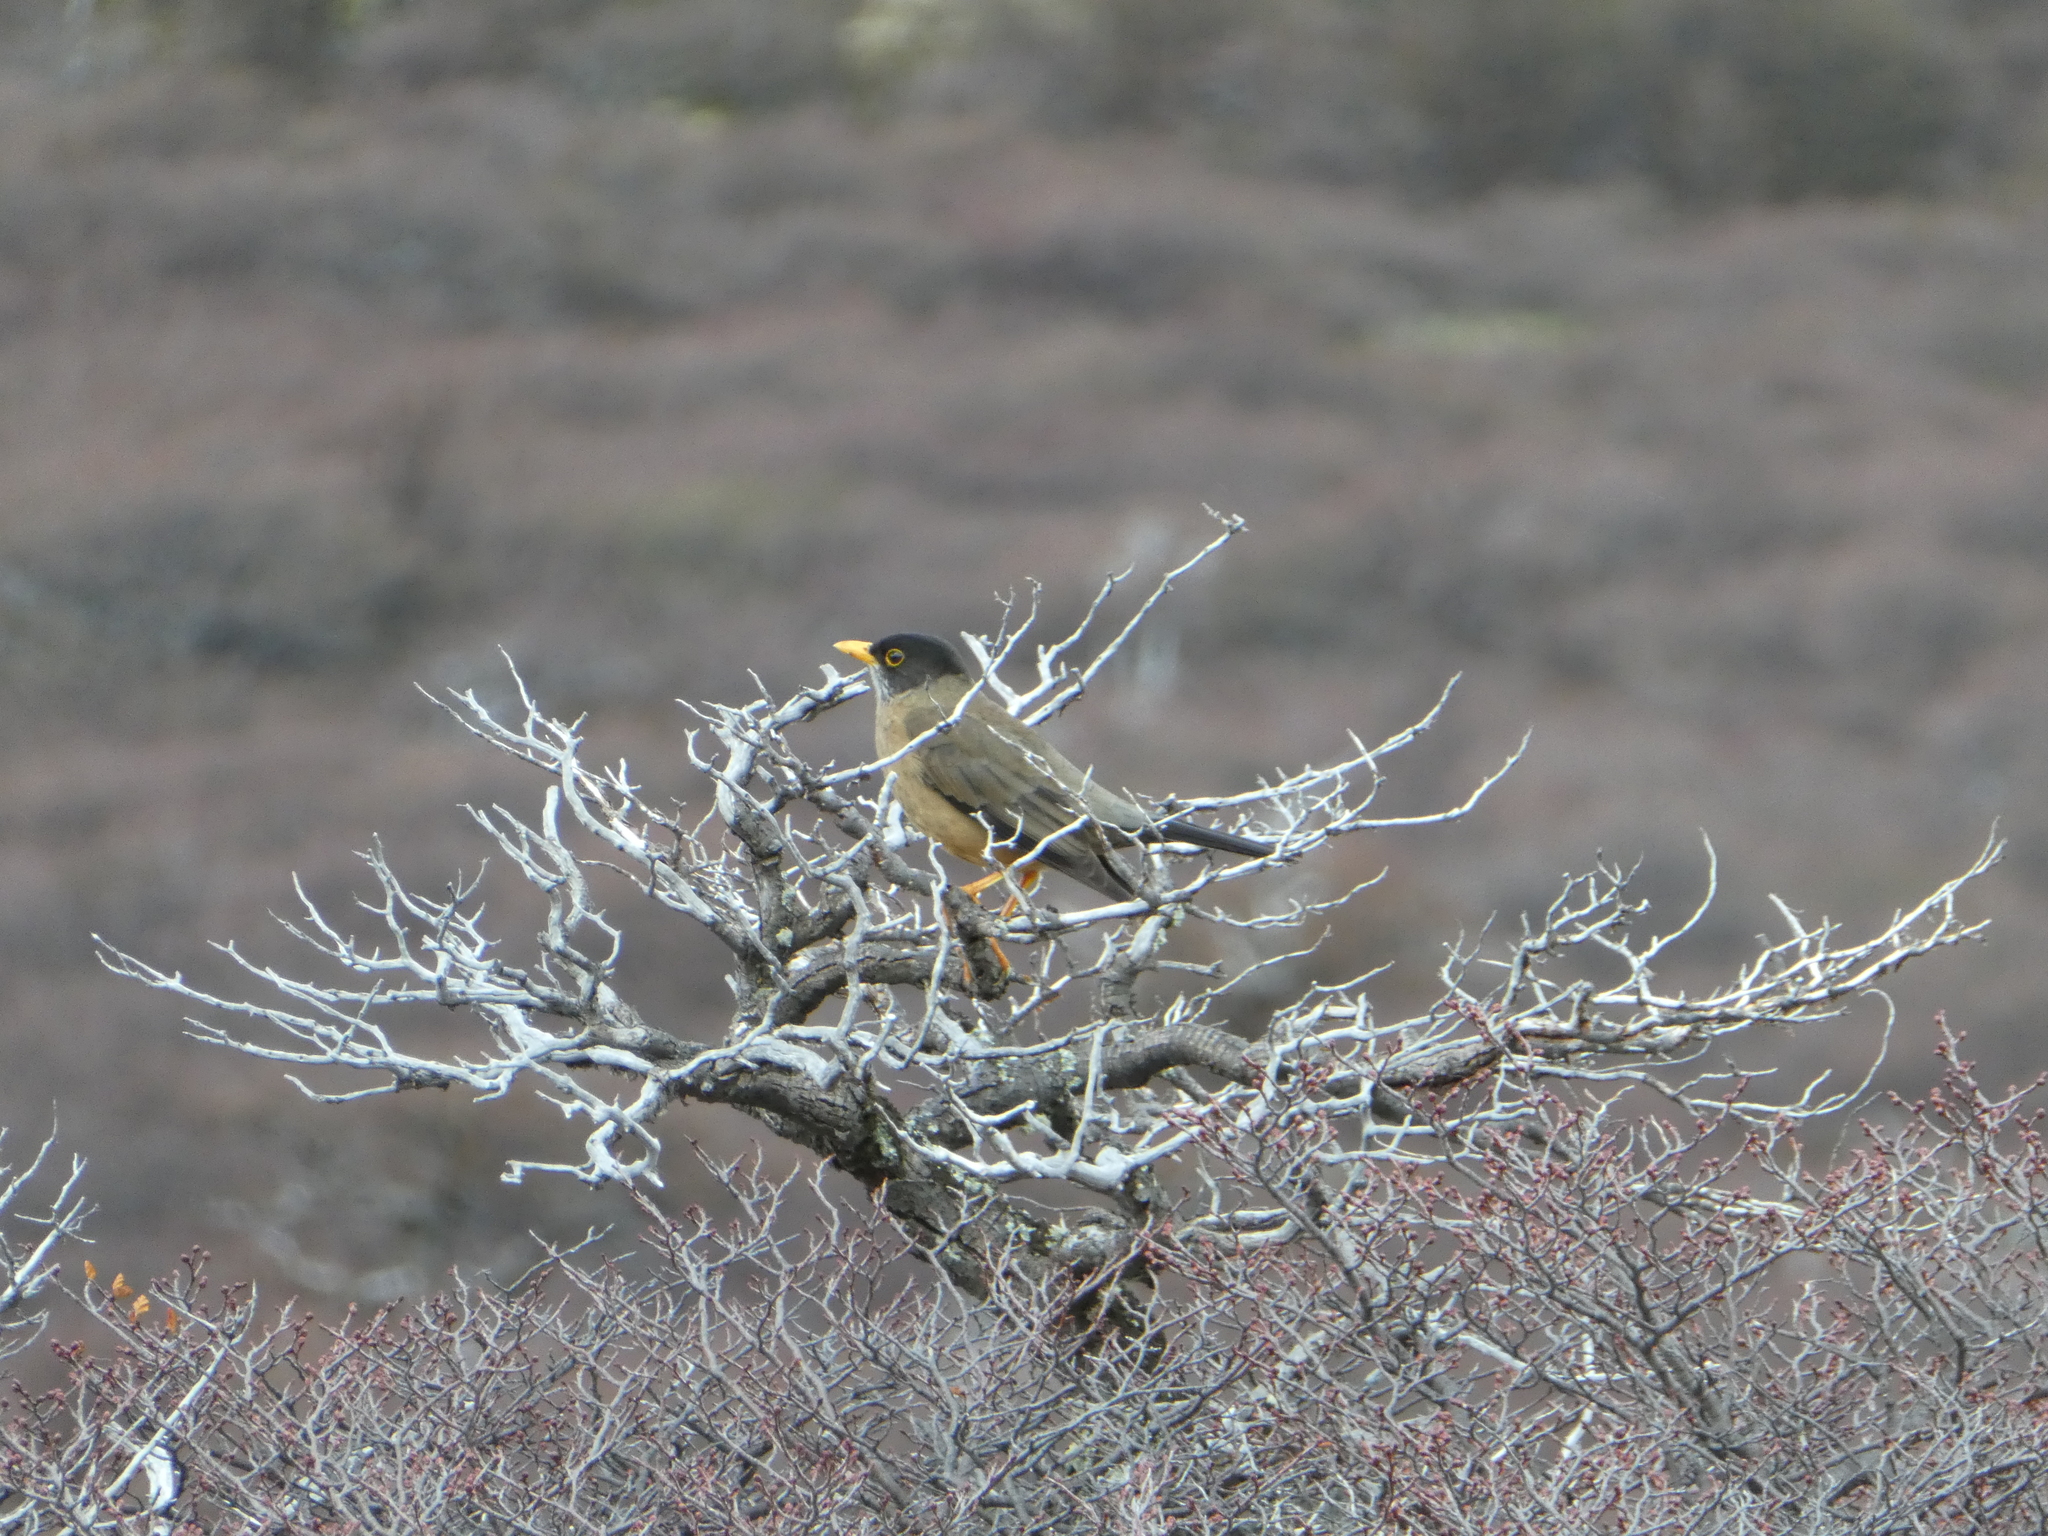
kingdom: Animalia
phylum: Chordata
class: Aves
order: Passeriformes
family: Turdidae
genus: Turdus
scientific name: Turdus falcklandii
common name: Austral thrush
